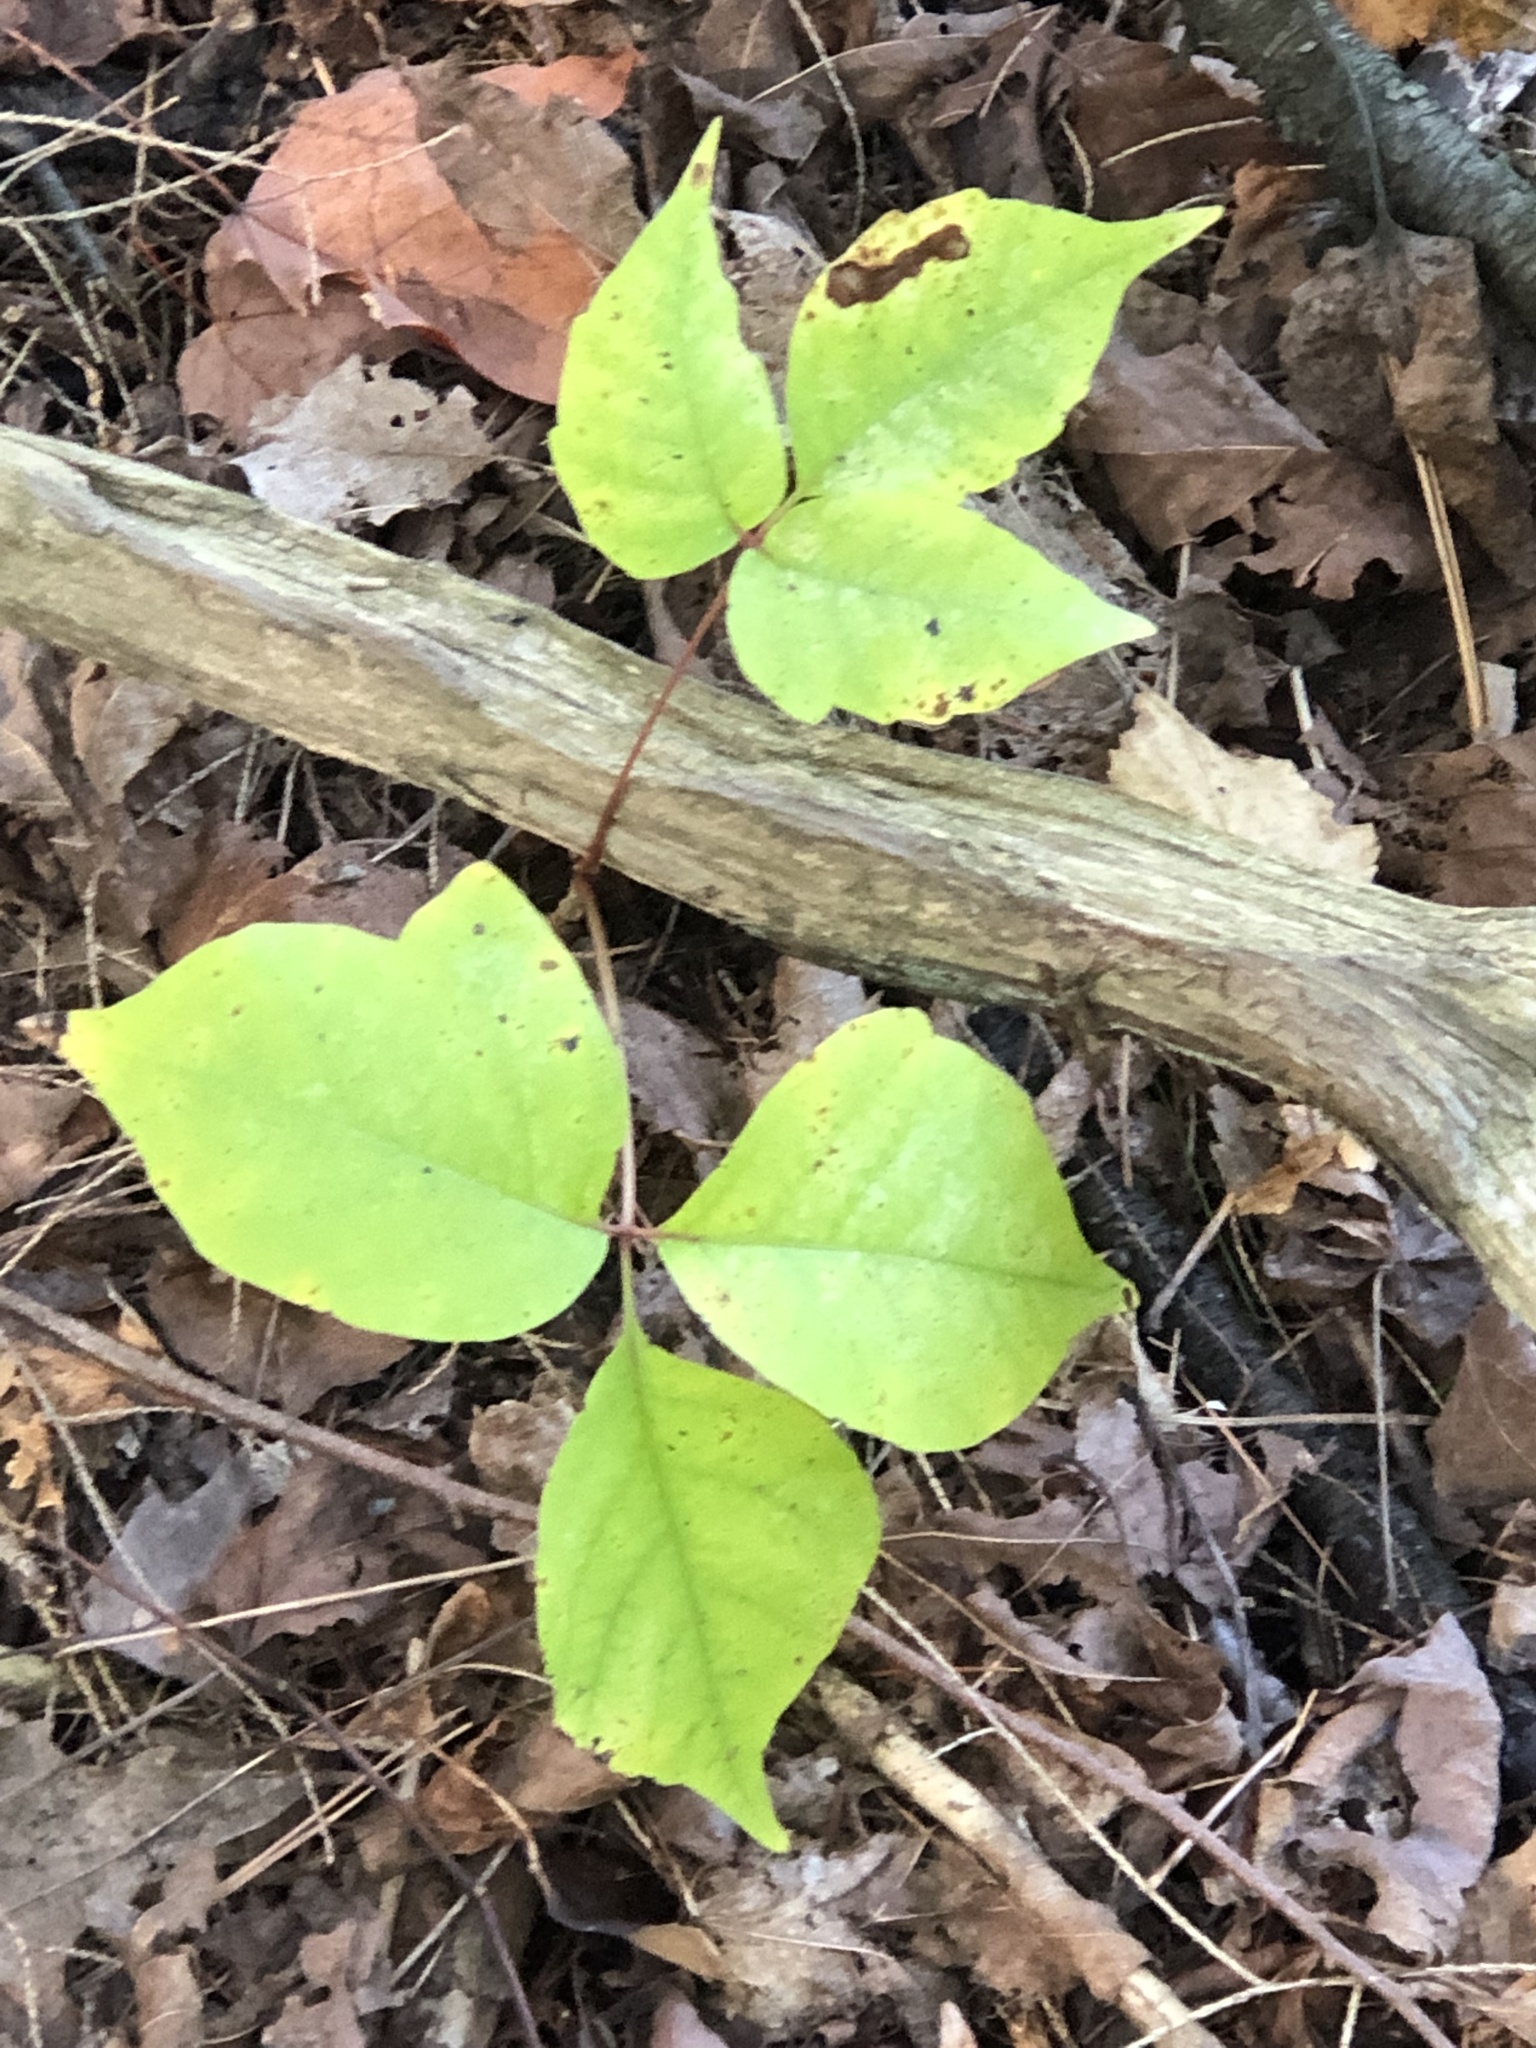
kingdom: Plantae
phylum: Tracheophyta
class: Magnoliopsida
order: Sapindales
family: Anacardiaceae
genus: Toxicodendron
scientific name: Toxicodendron radicans
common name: Poison ivy
